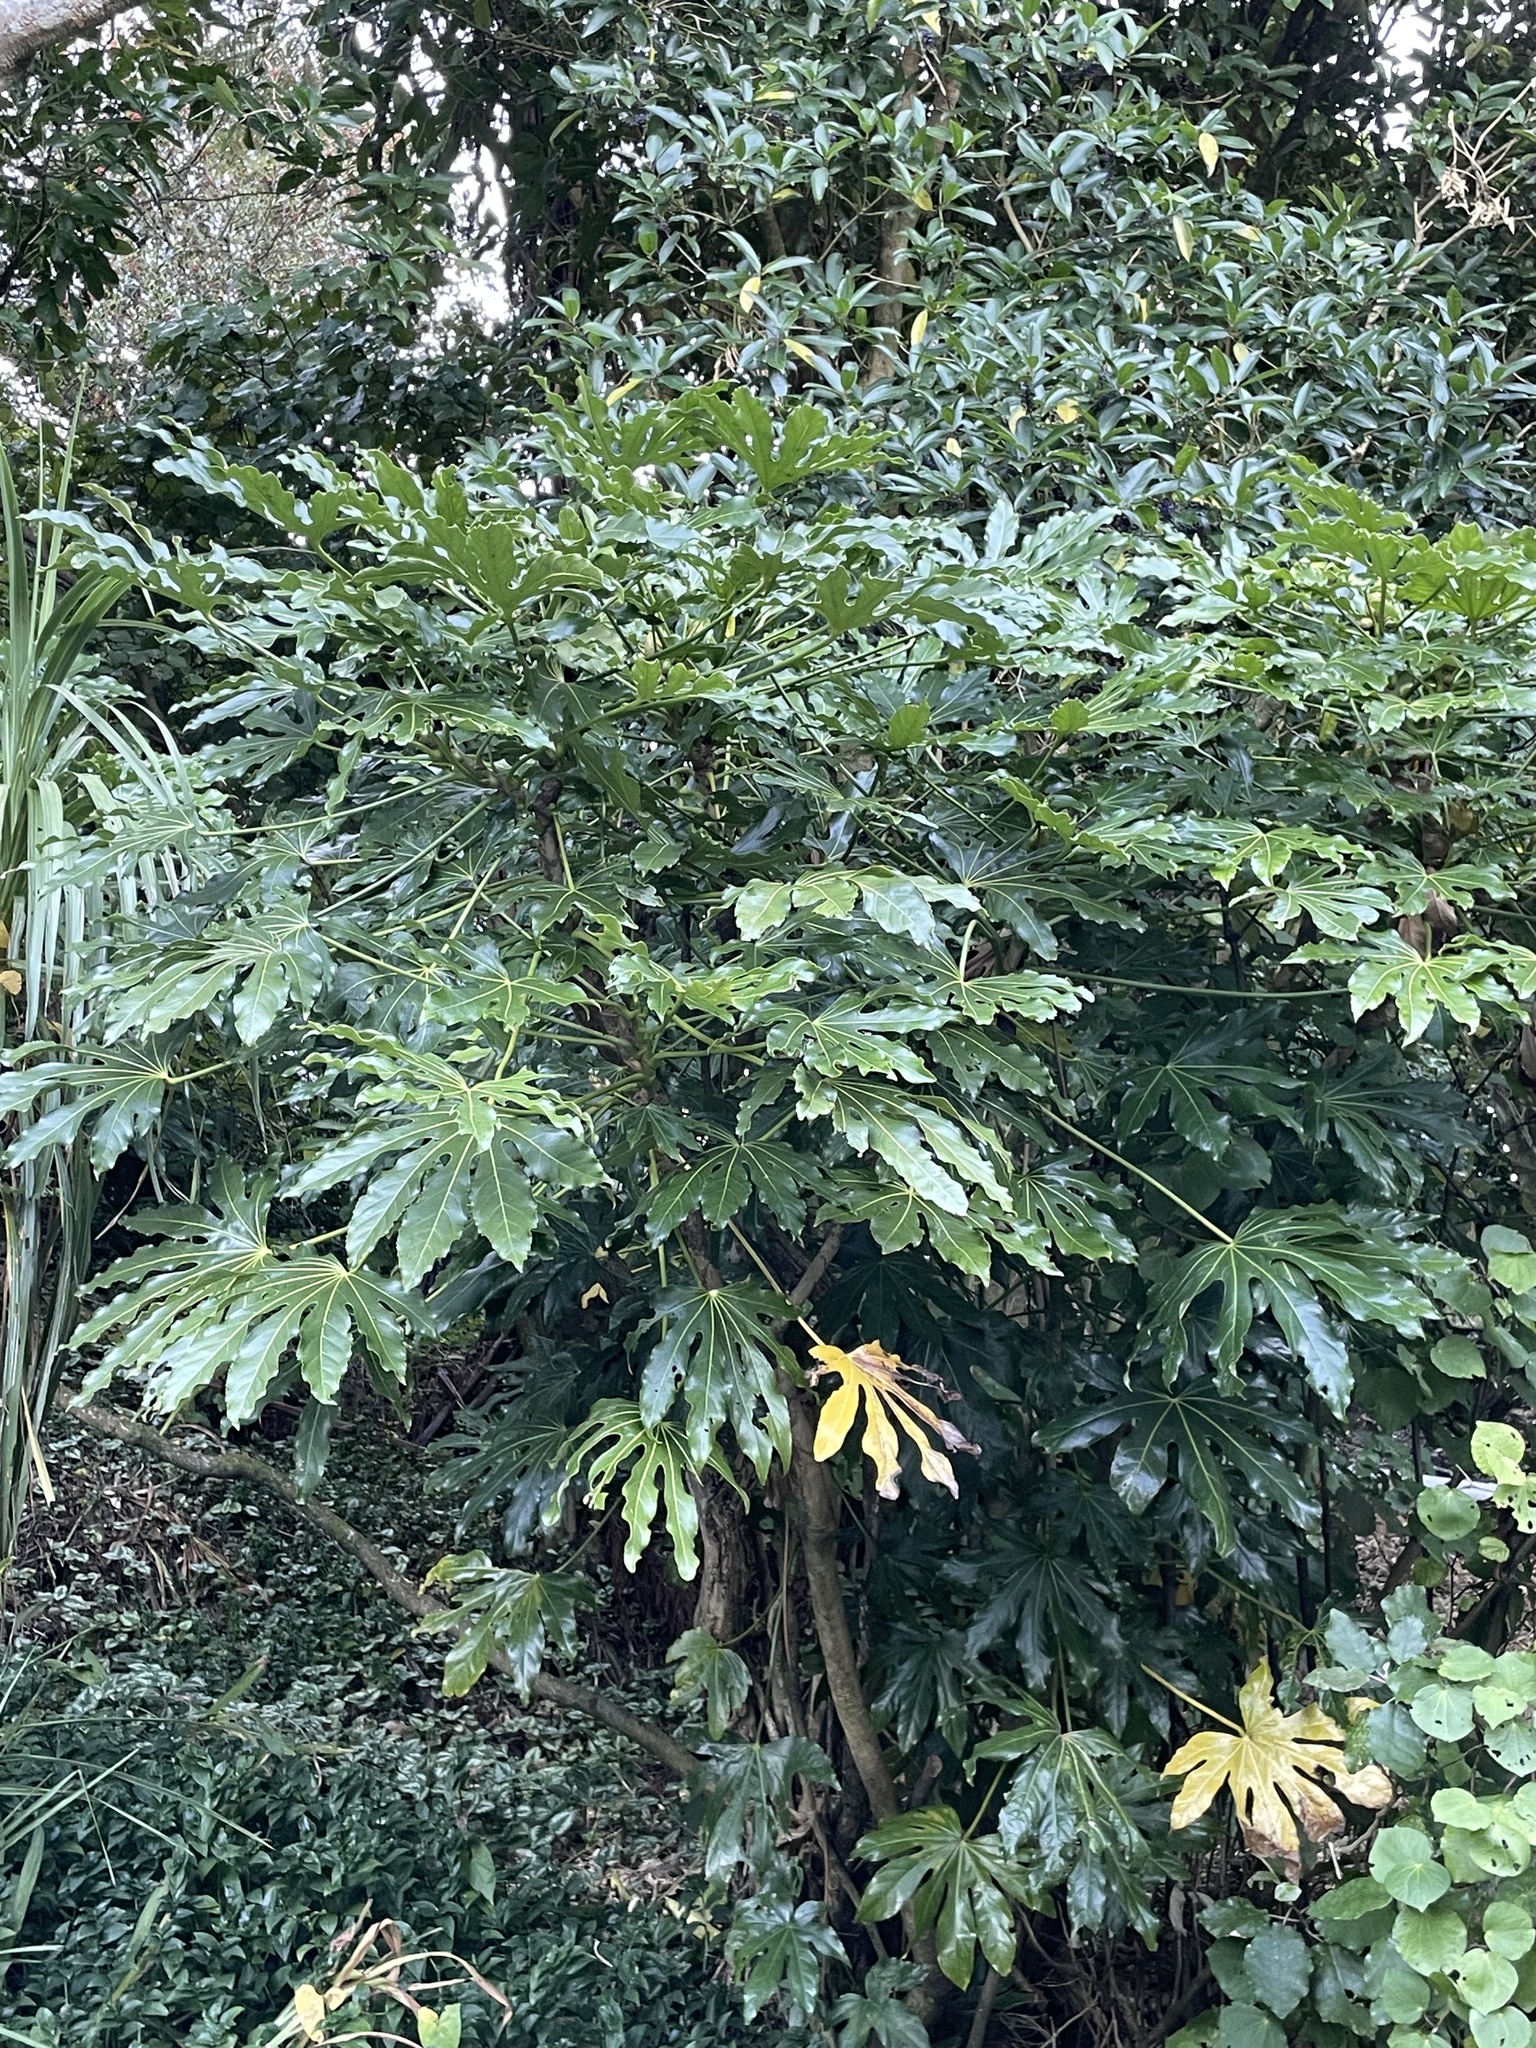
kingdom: Plantae
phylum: Tracheophyta
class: Magnoliopsida
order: Apiales
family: Araliaceae
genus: Fatsia
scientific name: Fatsia japonica
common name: Fatsia
